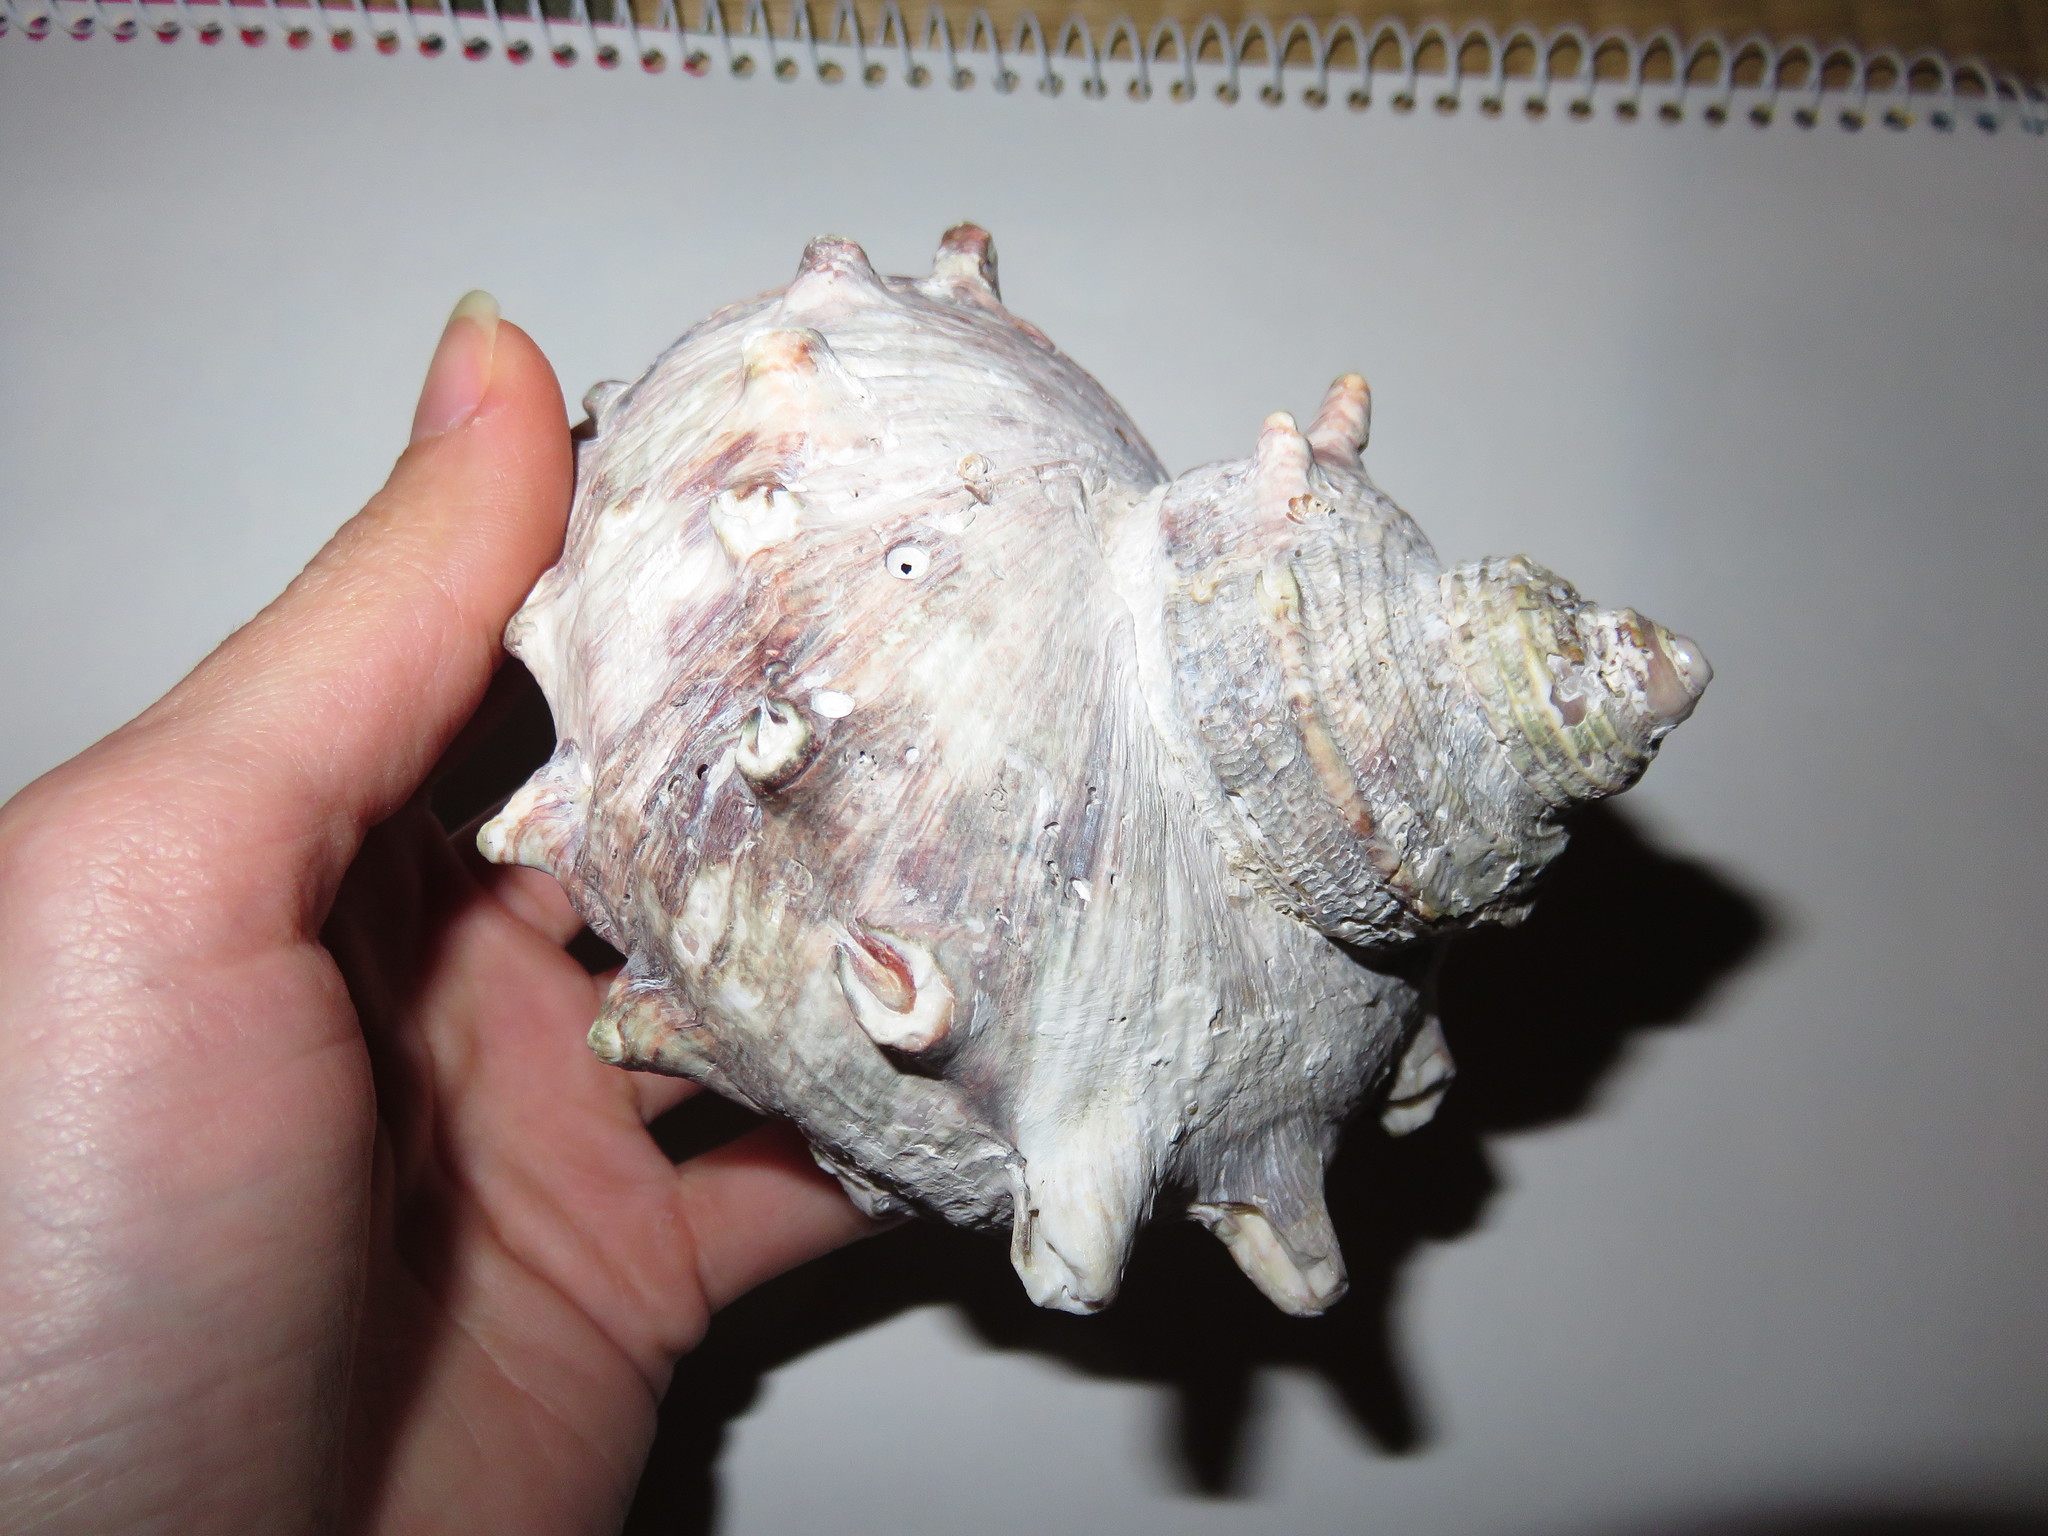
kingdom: Animalia
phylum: Mollusca
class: Gastropoda
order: Trochida
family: Turbinidae
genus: Turbo
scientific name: Turbo sazae
